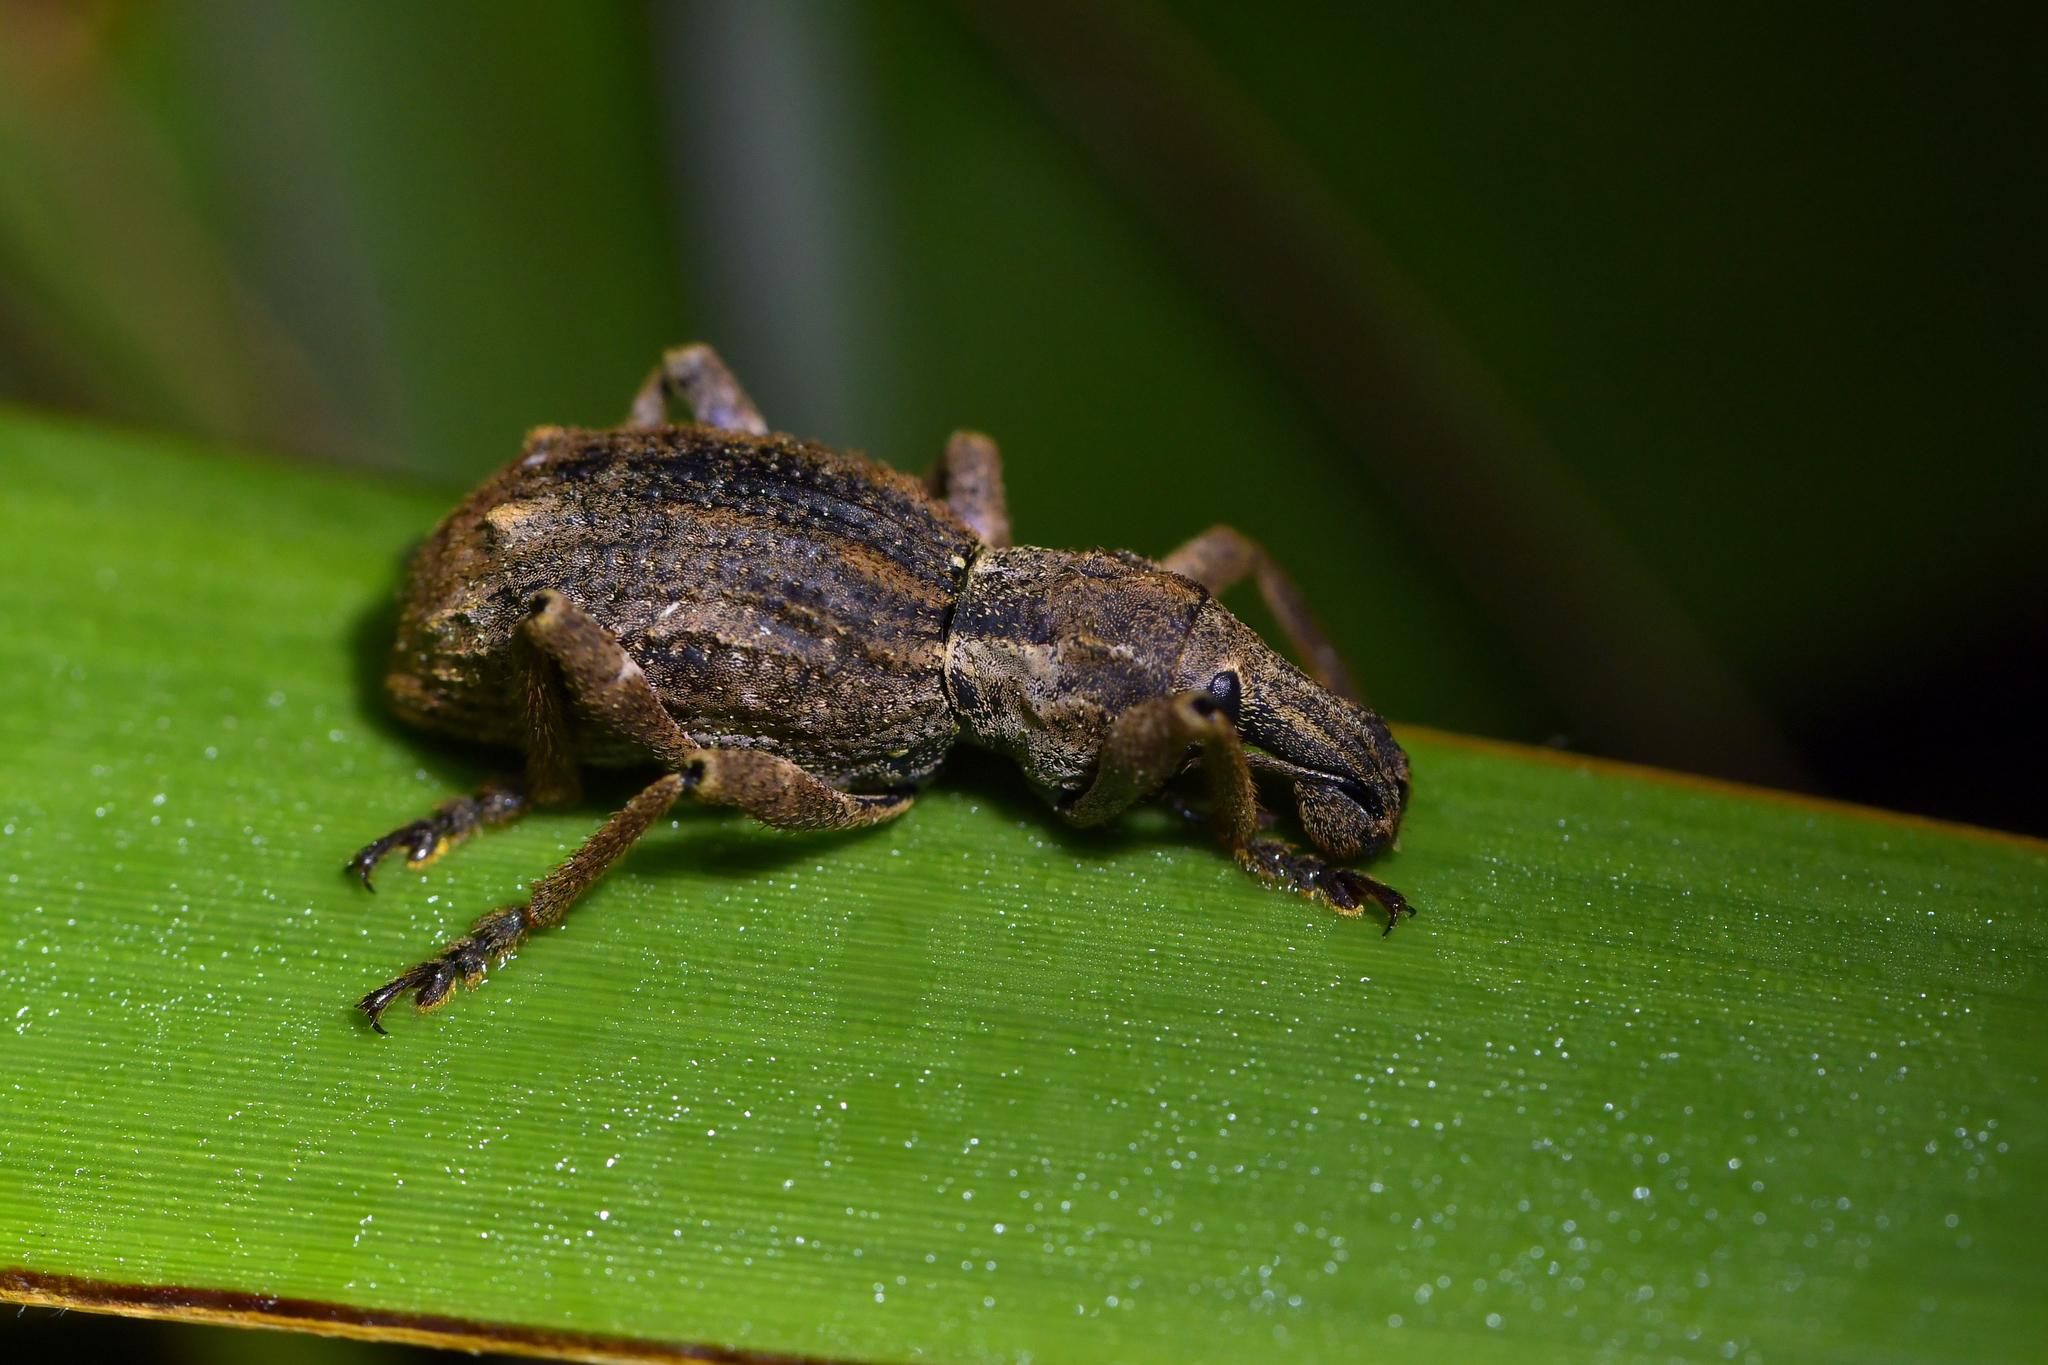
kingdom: Animalia
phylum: Arthropoda
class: Insecta
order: Coleoptera
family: Curculionidae
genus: Anagotus
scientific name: Anagotus fairburni
